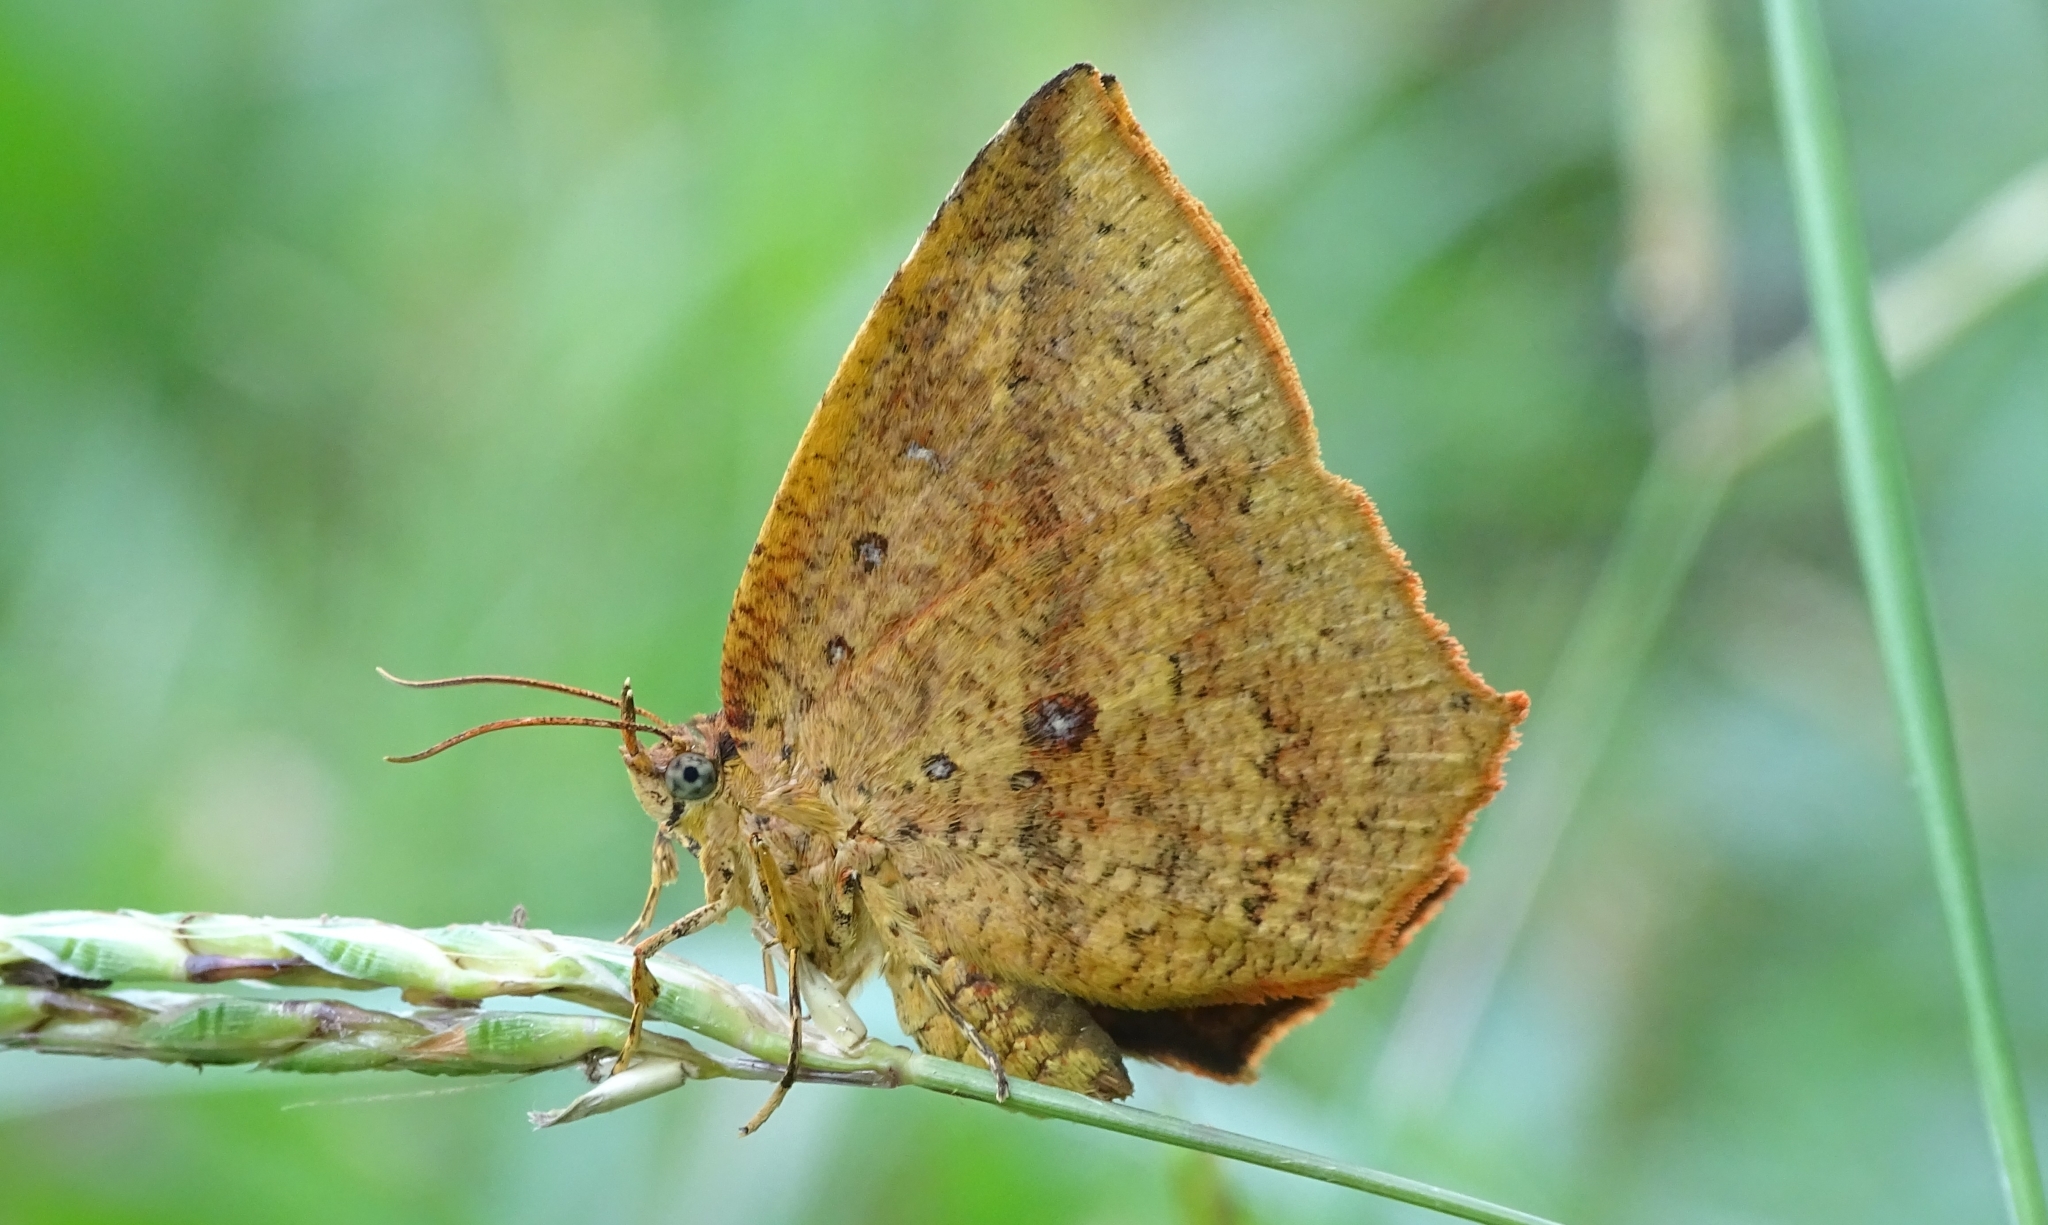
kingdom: Animalia
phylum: Arthropoda
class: Insecta
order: Lepidoptera
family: Callidulidae
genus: Tetragonus
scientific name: Tetragonus catamitus
